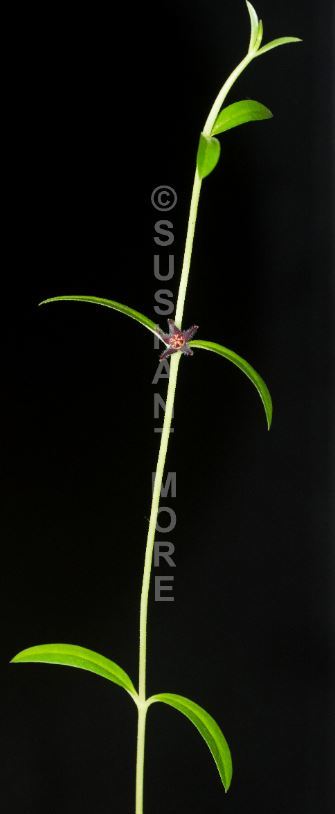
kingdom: Plantae
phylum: Tracheophyta
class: Magnoliopsida
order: Gentianales
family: Apocynaceae
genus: Ceropegia
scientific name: Ceropegia ariyittaparensis
